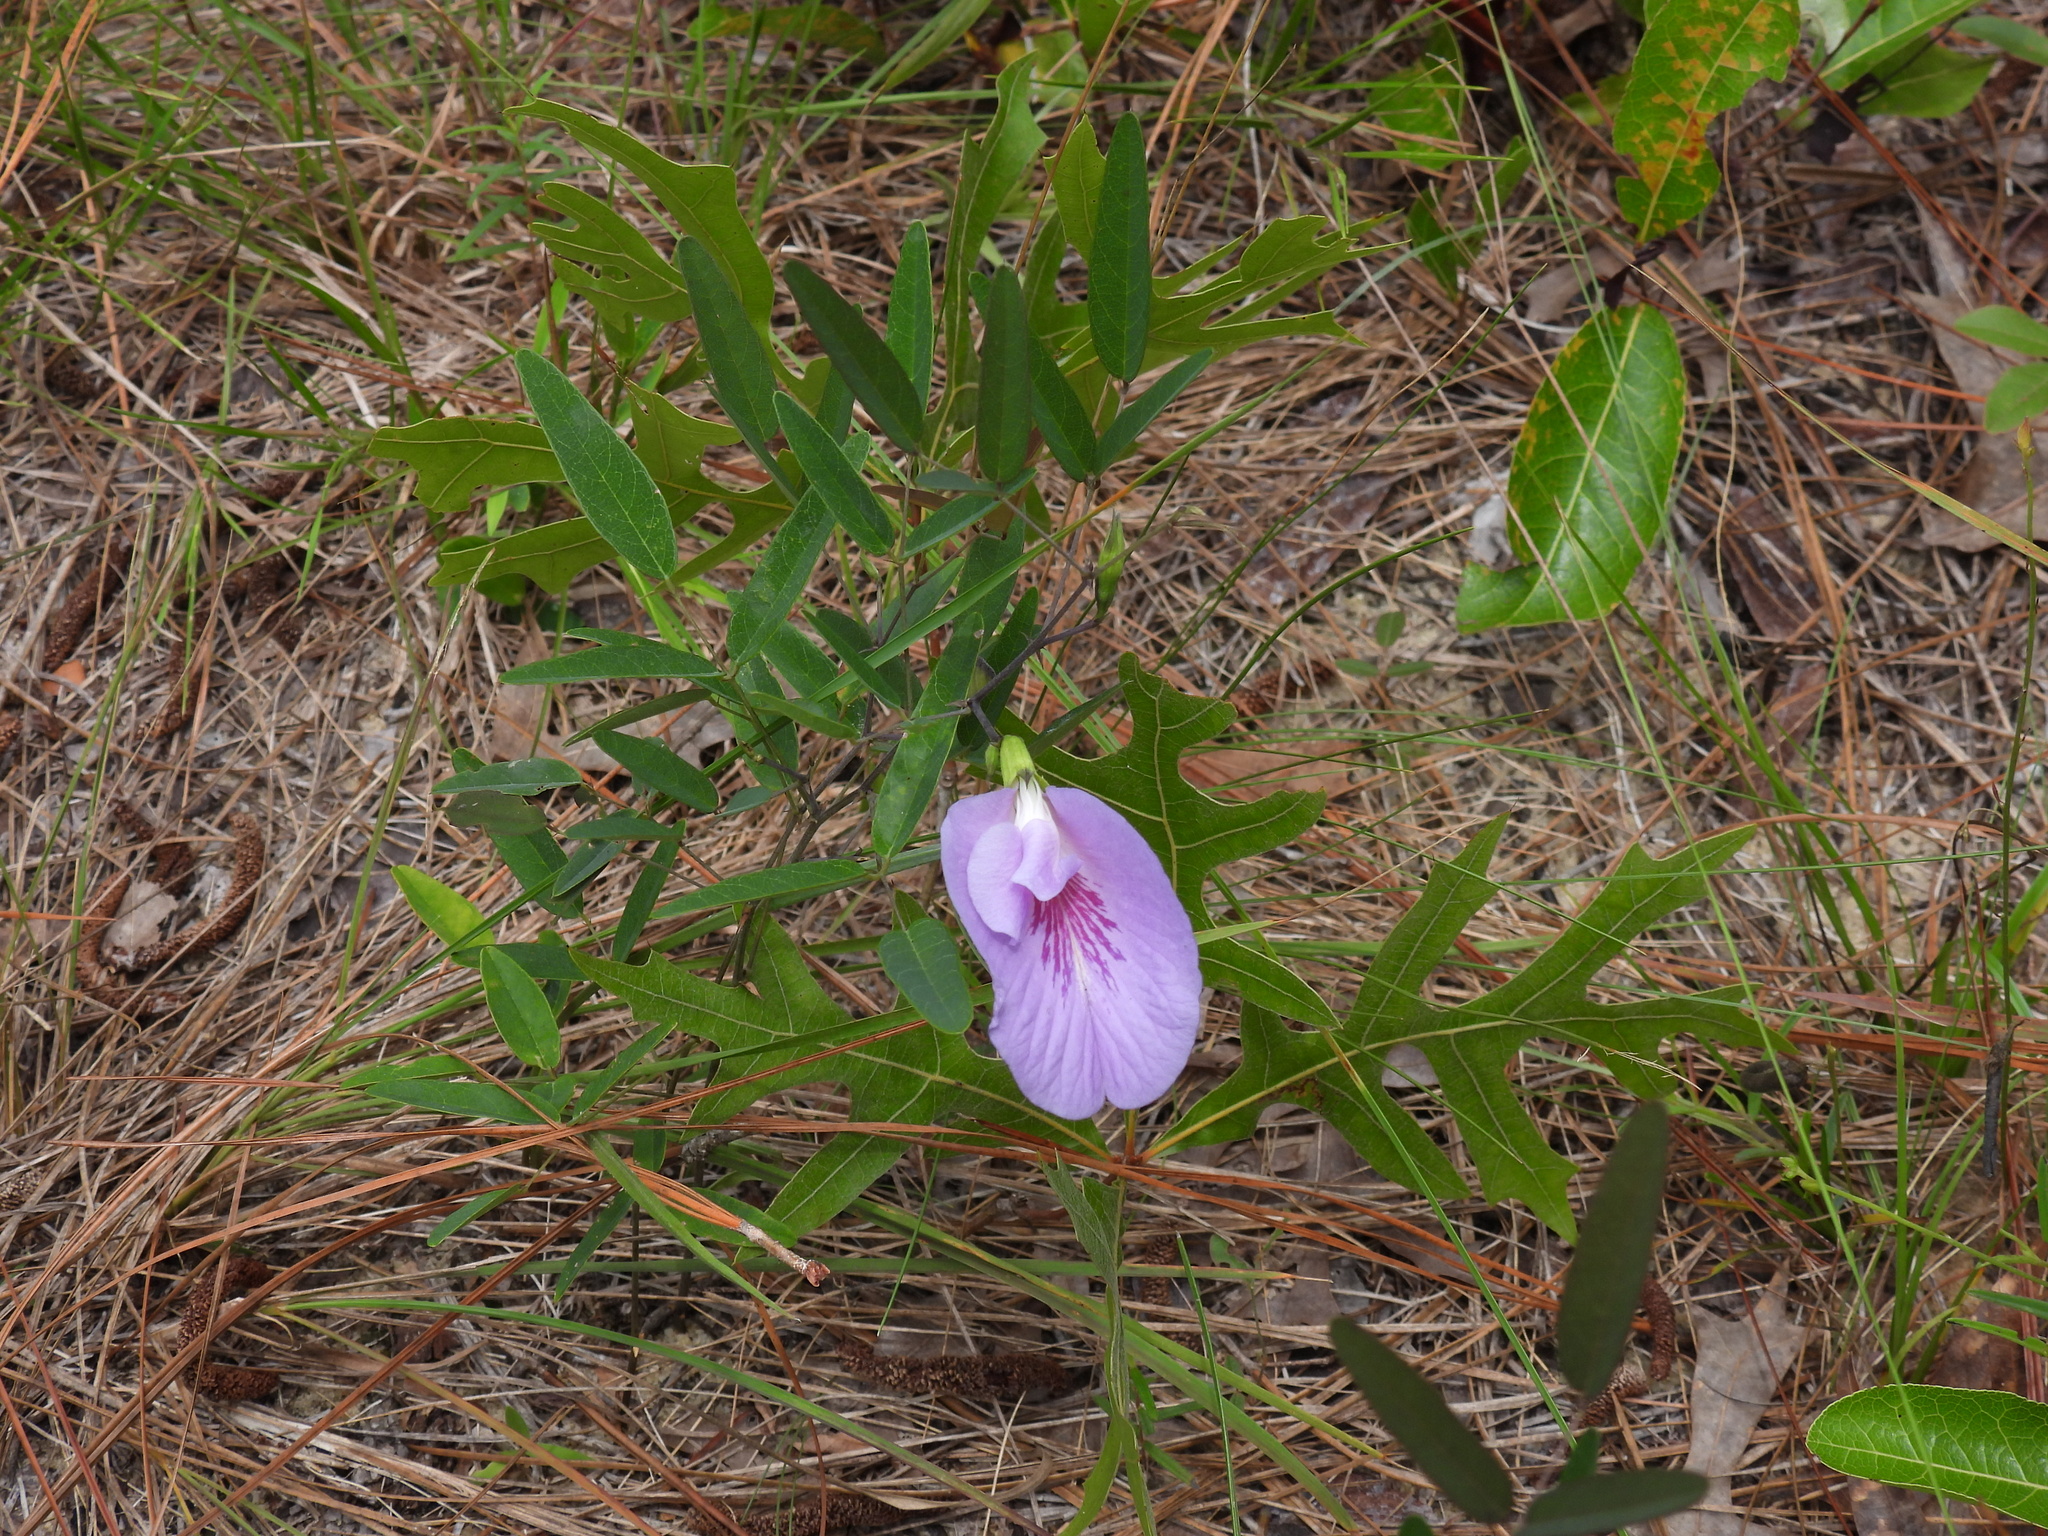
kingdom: Plantae
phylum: Tracheophyta
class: Magnoliopsida
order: Fabales
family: Fabaceae
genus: Clitoria
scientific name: Clitoria fragrans
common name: Pigeon-wings
